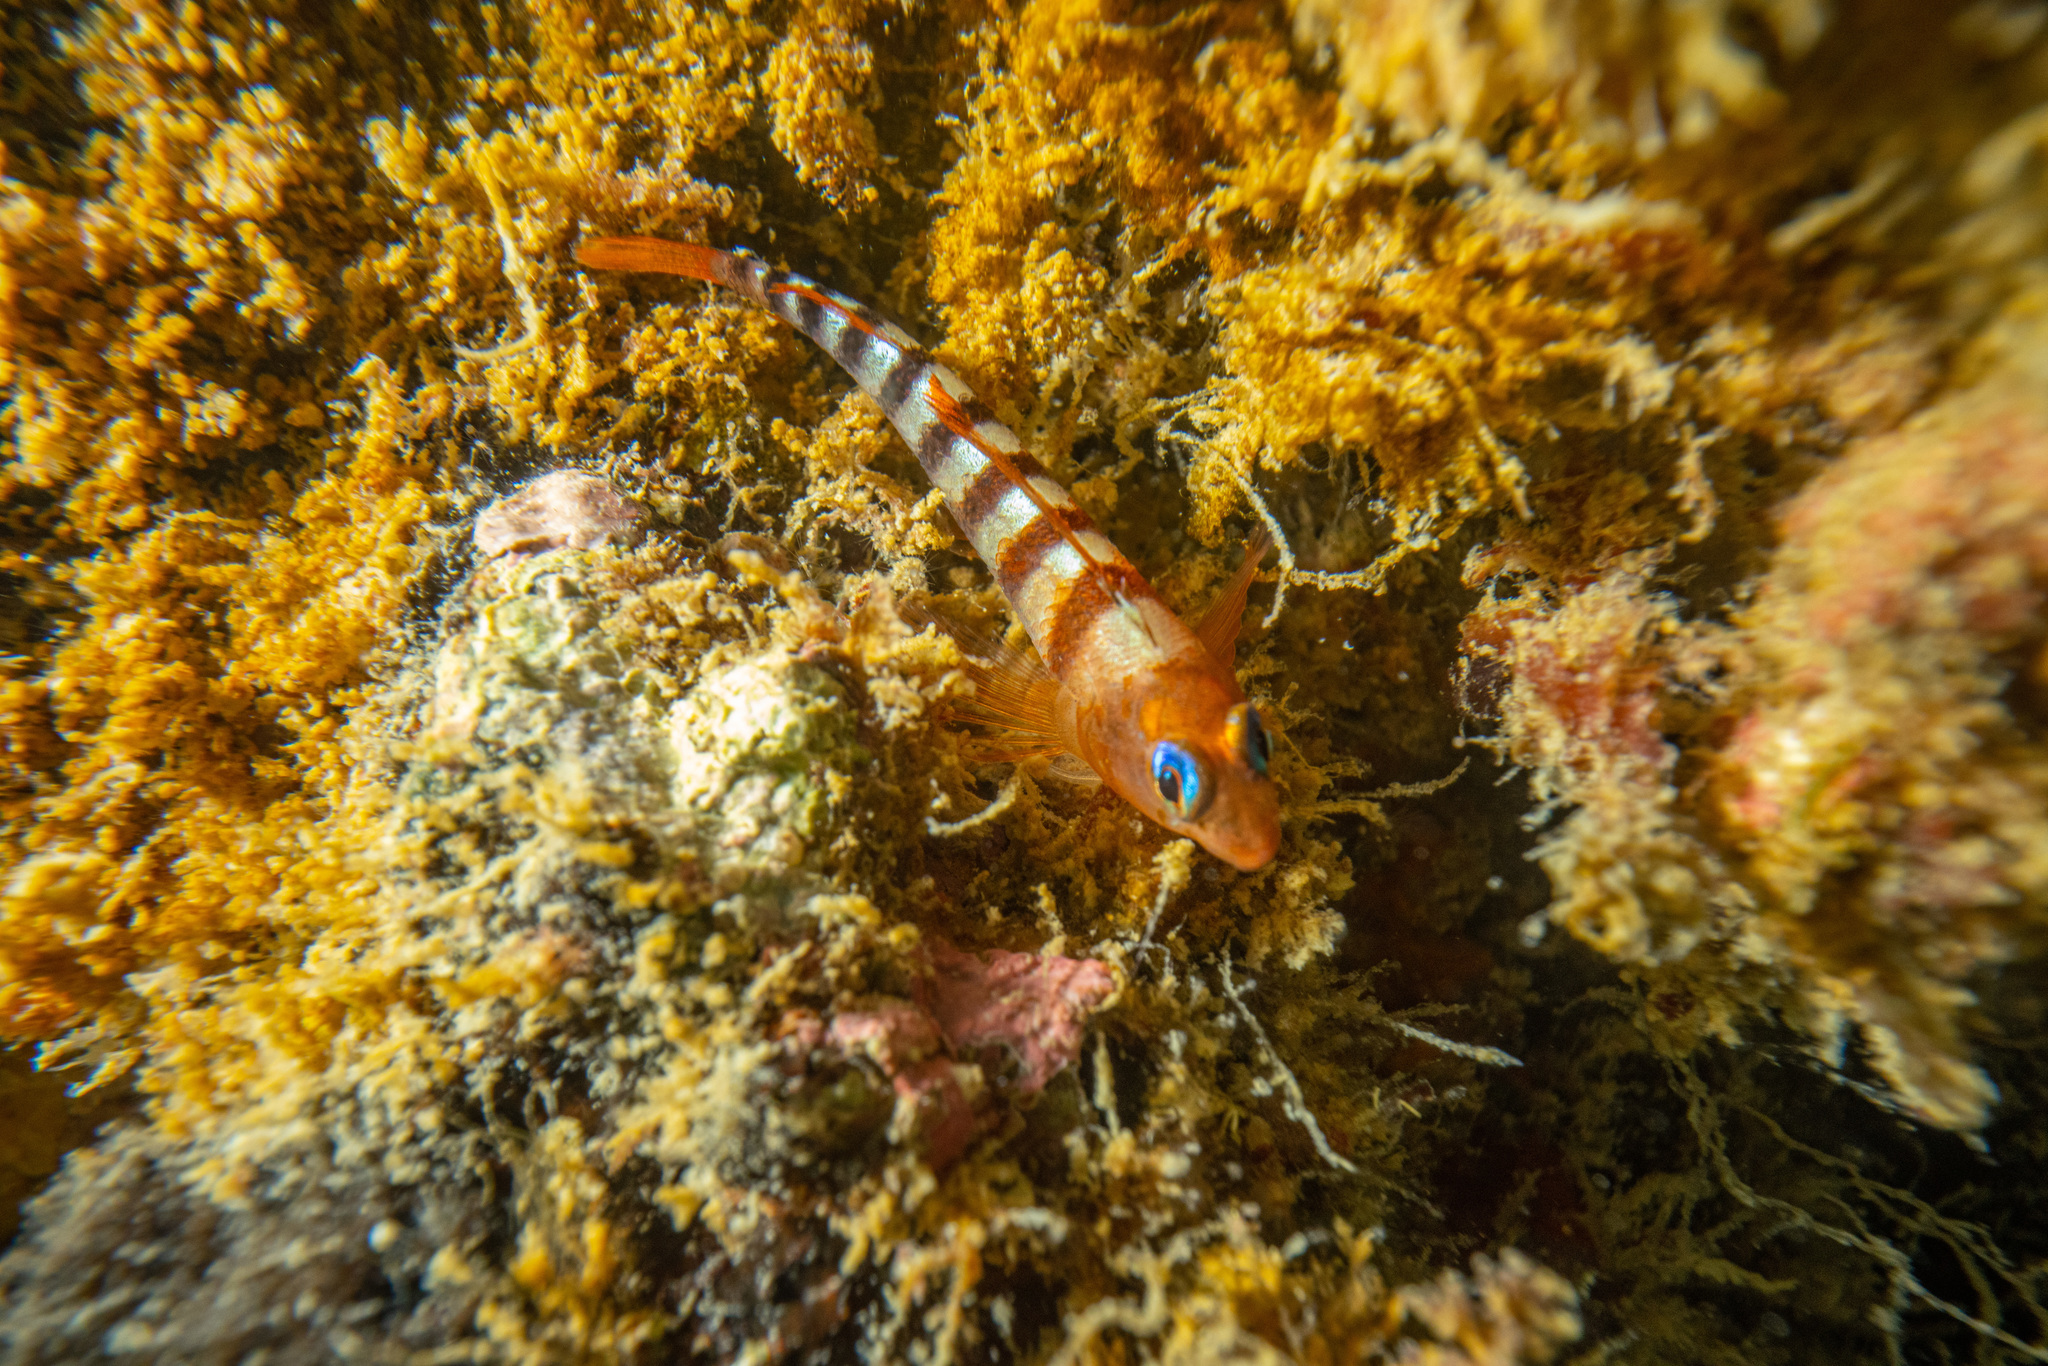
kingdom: Animalia
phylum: Chordata
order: Perciformes
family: Tripterygiidae
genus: Notoclinops
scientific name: Notoclinops segmentatus
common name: Blue-eyed triplefin
